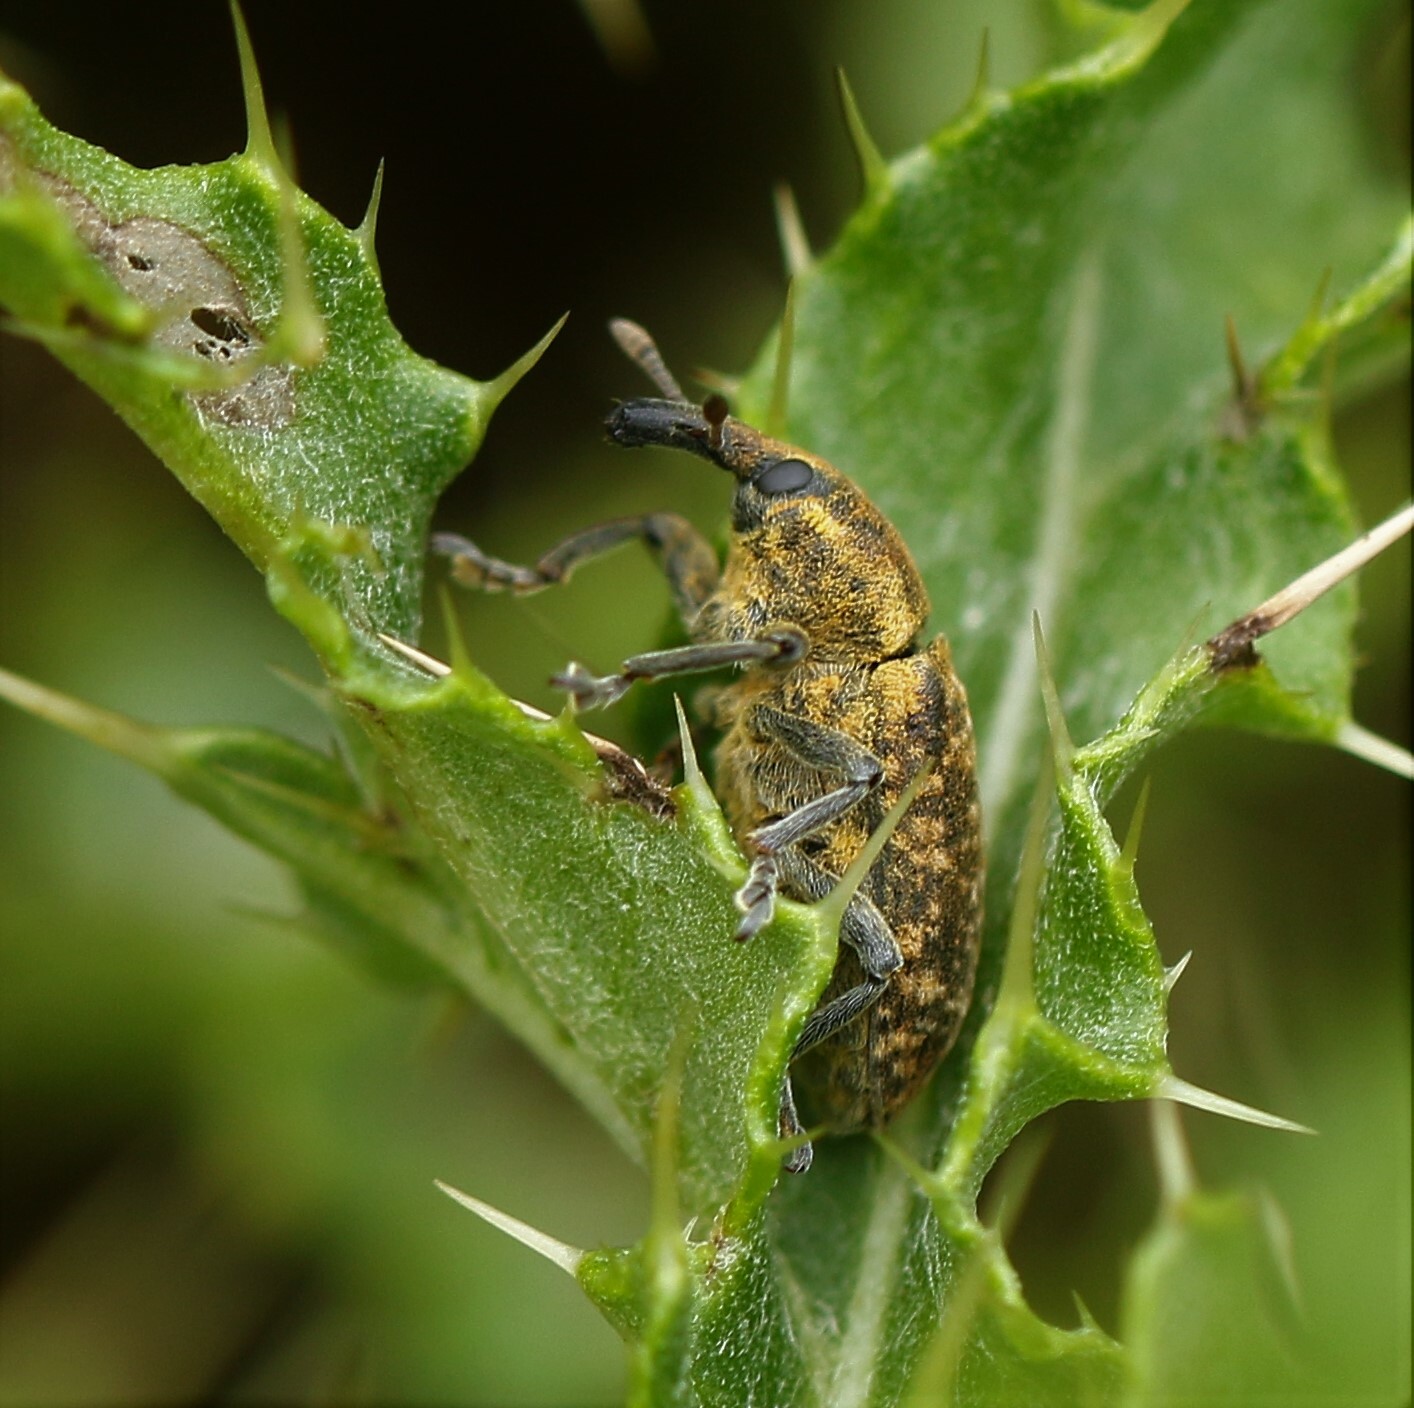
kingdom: Animalia
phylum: Arthropoda
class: Insecta
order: Coleoptera
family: Curculionidae
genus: Larinus
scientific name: Larinus carlinae
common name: Weevil
